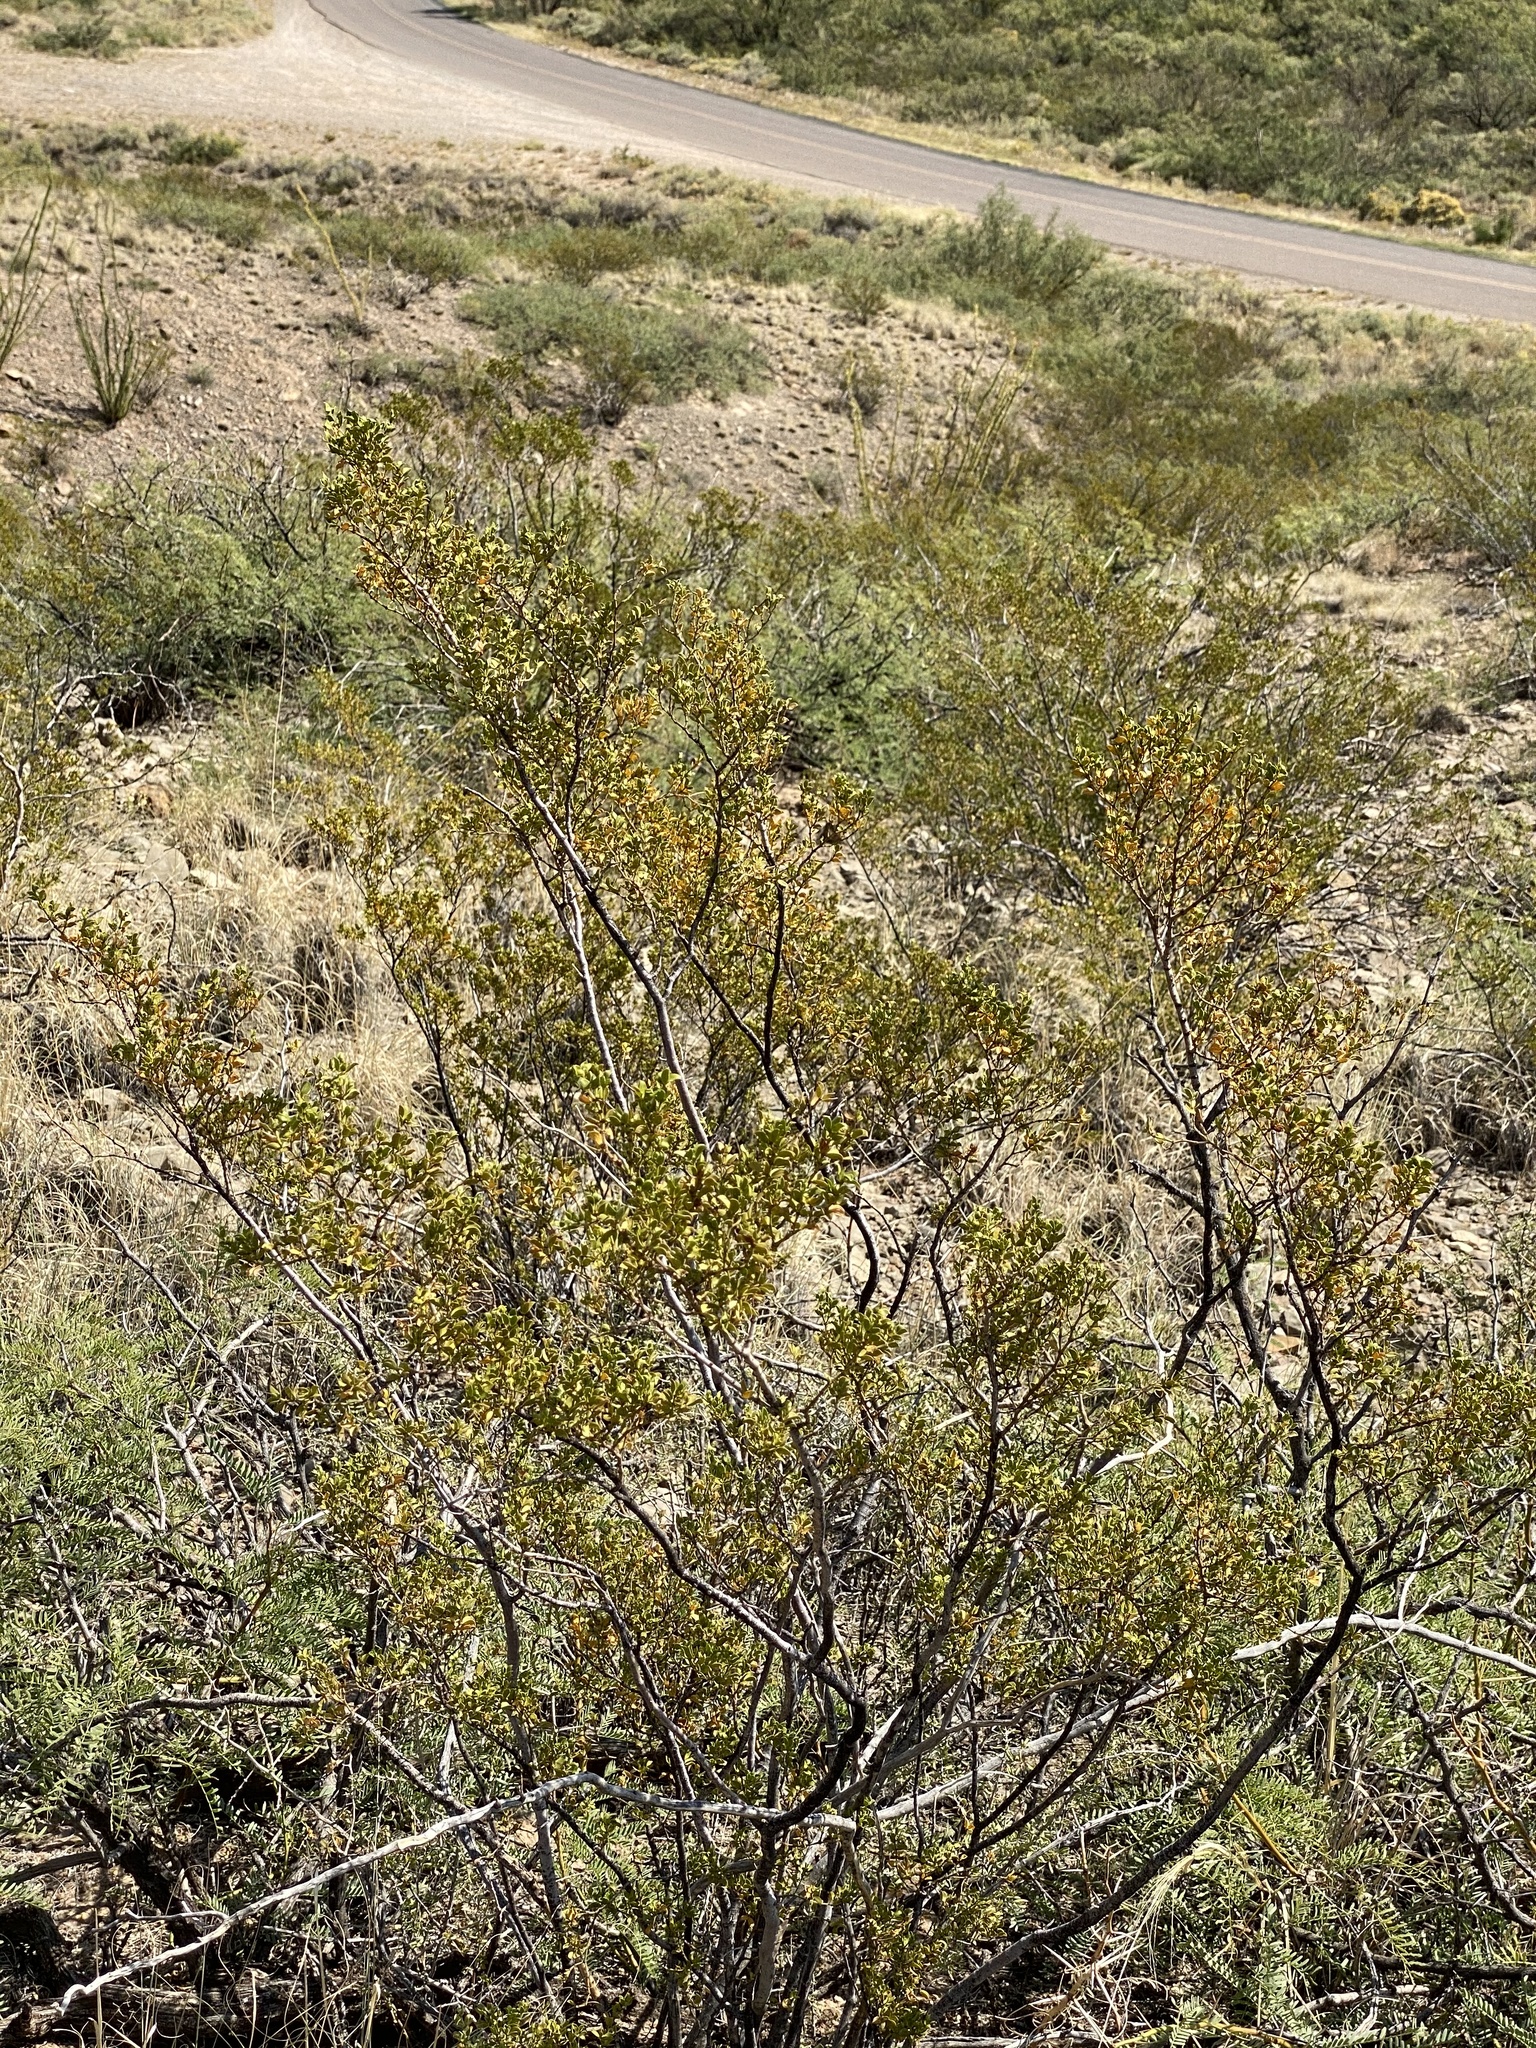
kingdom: Plantae
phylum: Tracheophyta
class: Magnoliopsida
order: Zygophyllales
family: Zygophyllaceae
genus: Larrea
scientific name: Larrea tridentata
